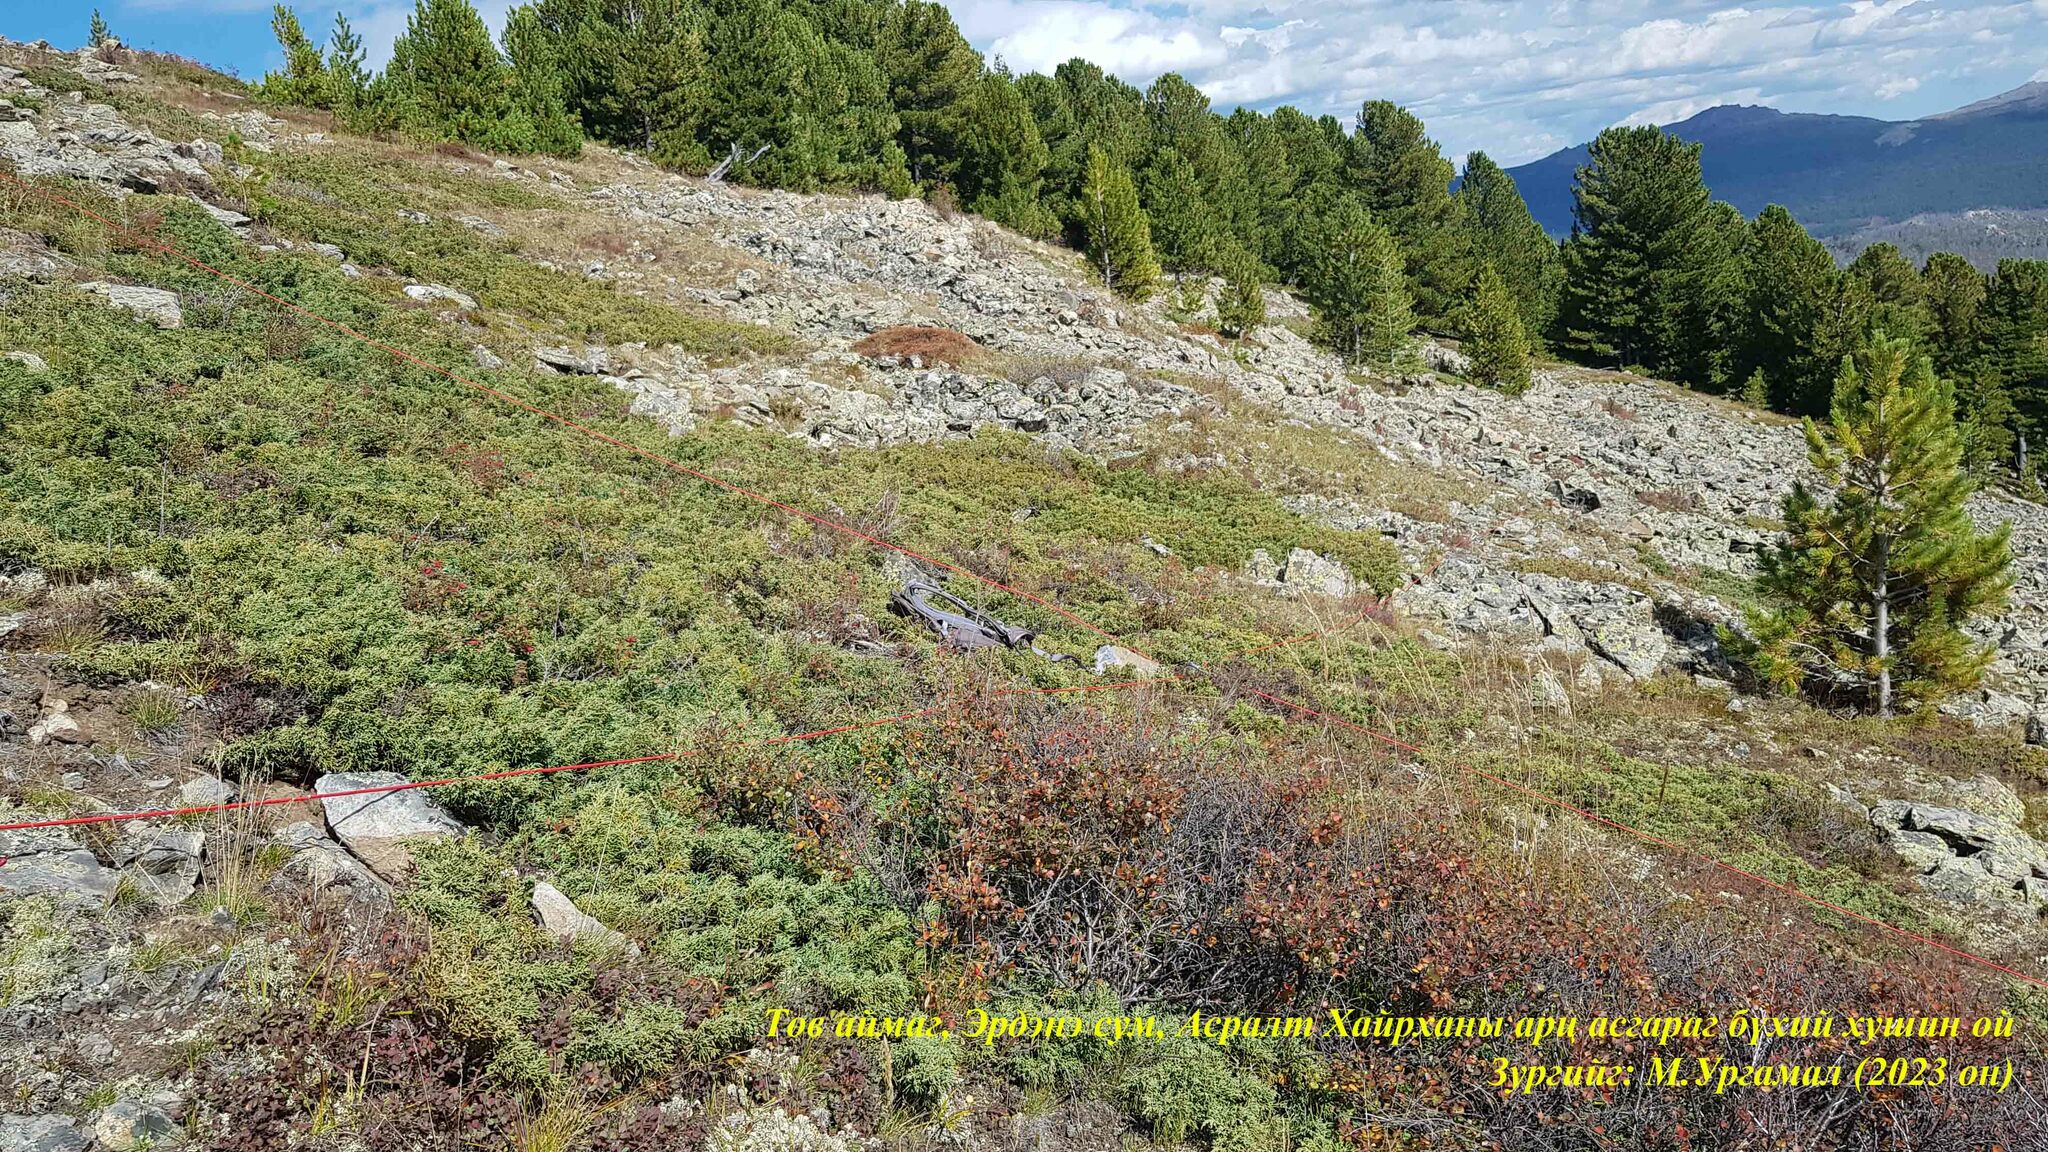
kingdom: Plantae
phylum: Tracheophyta
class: Pinopsida
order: Pinales
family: Cupressaceae
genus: Juniperus
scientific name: Juniperus communis
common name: Common juniper
